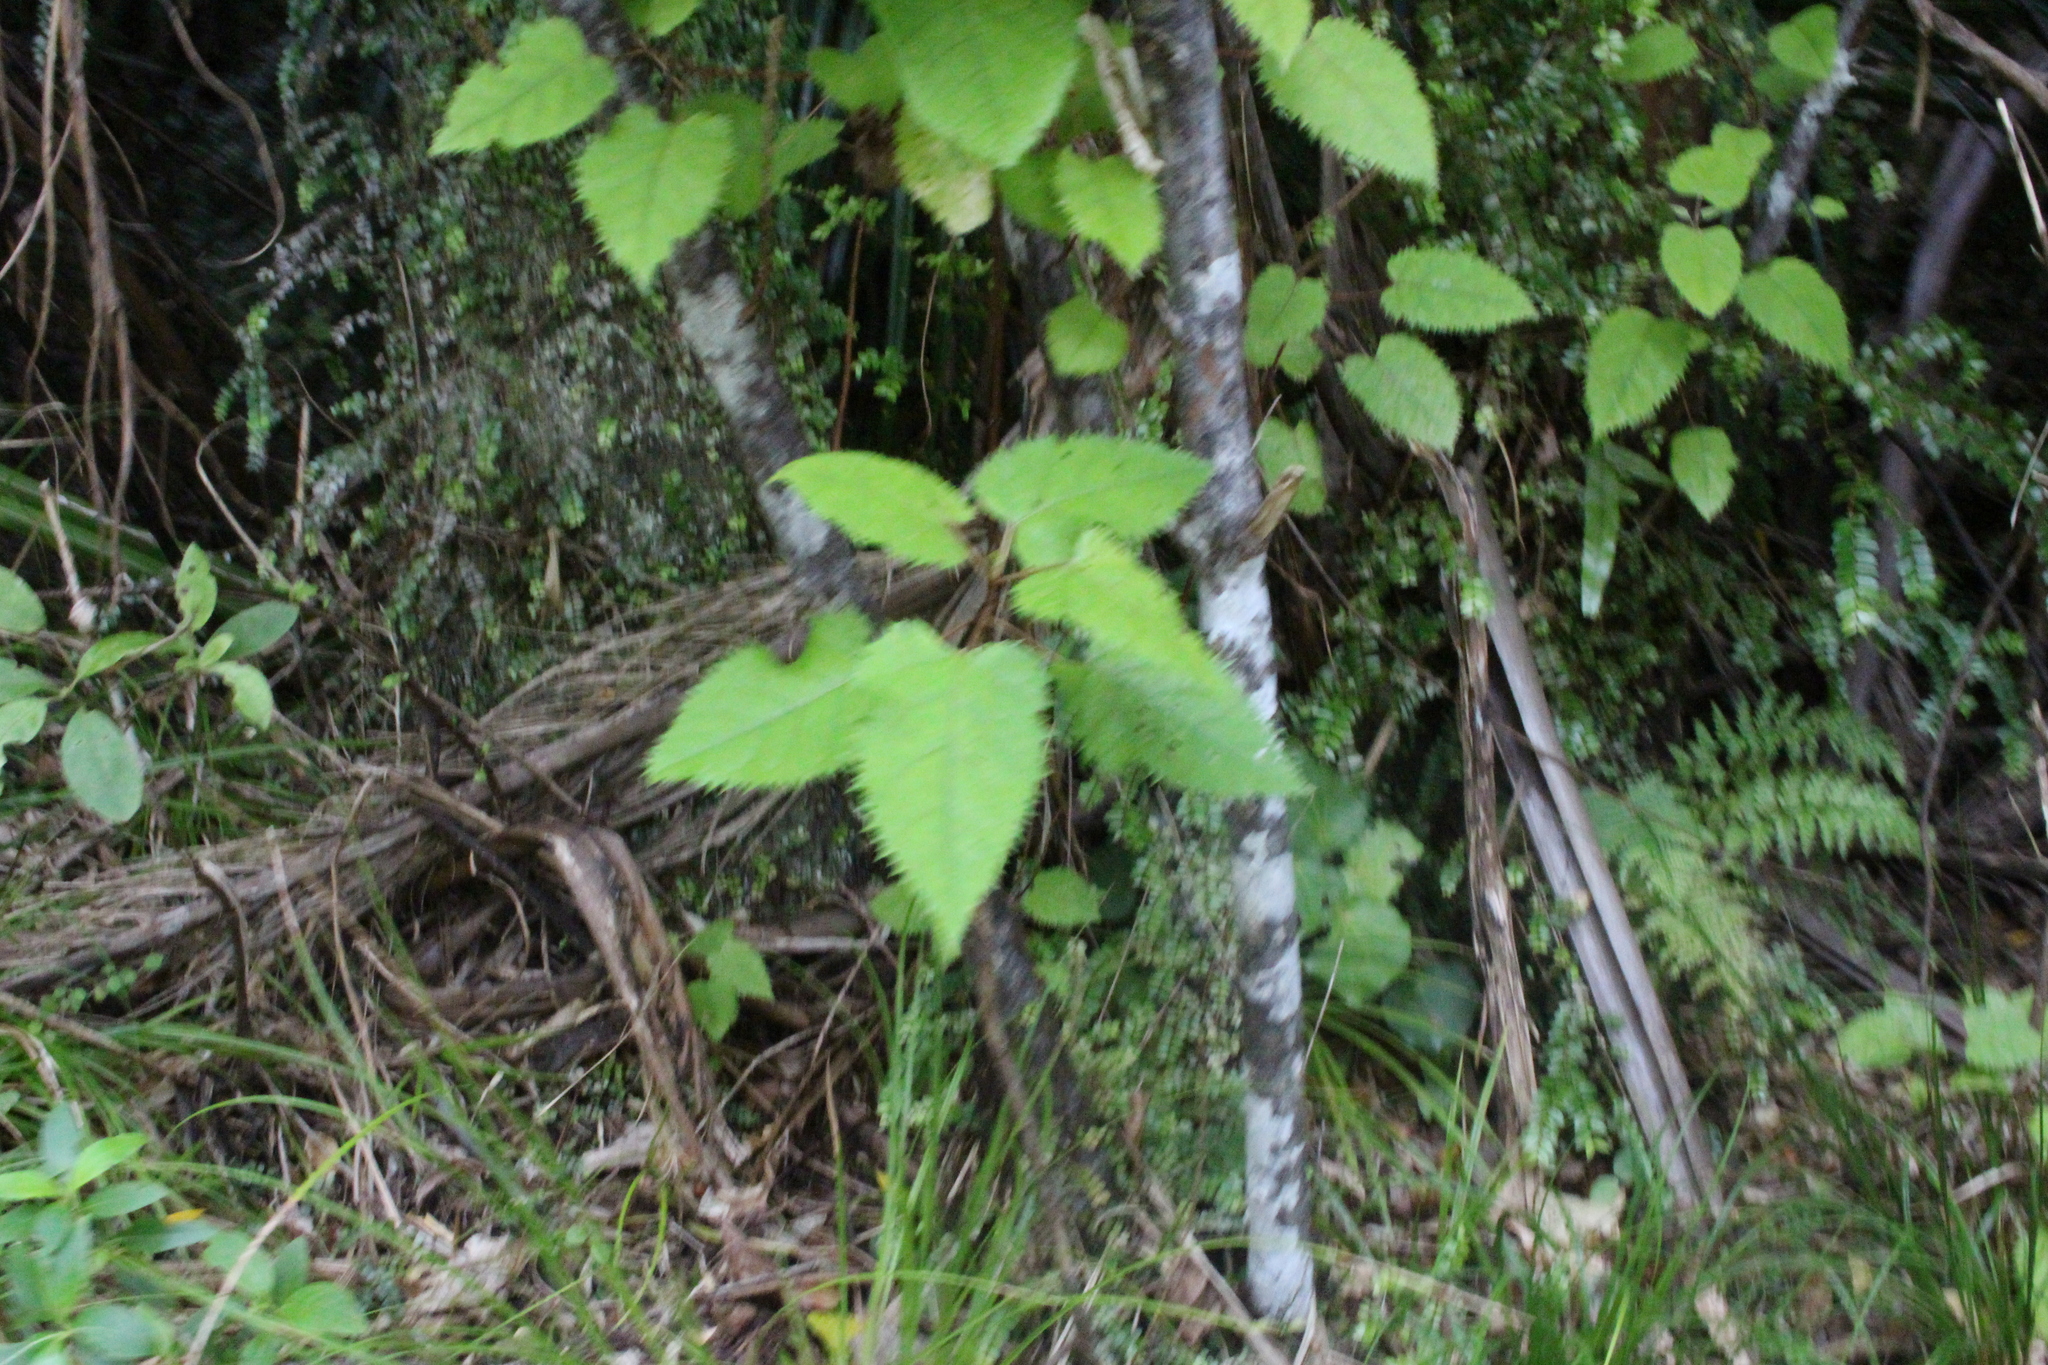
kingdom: Plantae
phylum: Tracheophyta
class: Magnoliopsida
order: Oxalidales
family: Elaeocarpaceae
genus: Aristotelia
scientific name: Aristotelia serrata
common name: New zealand wineberry
